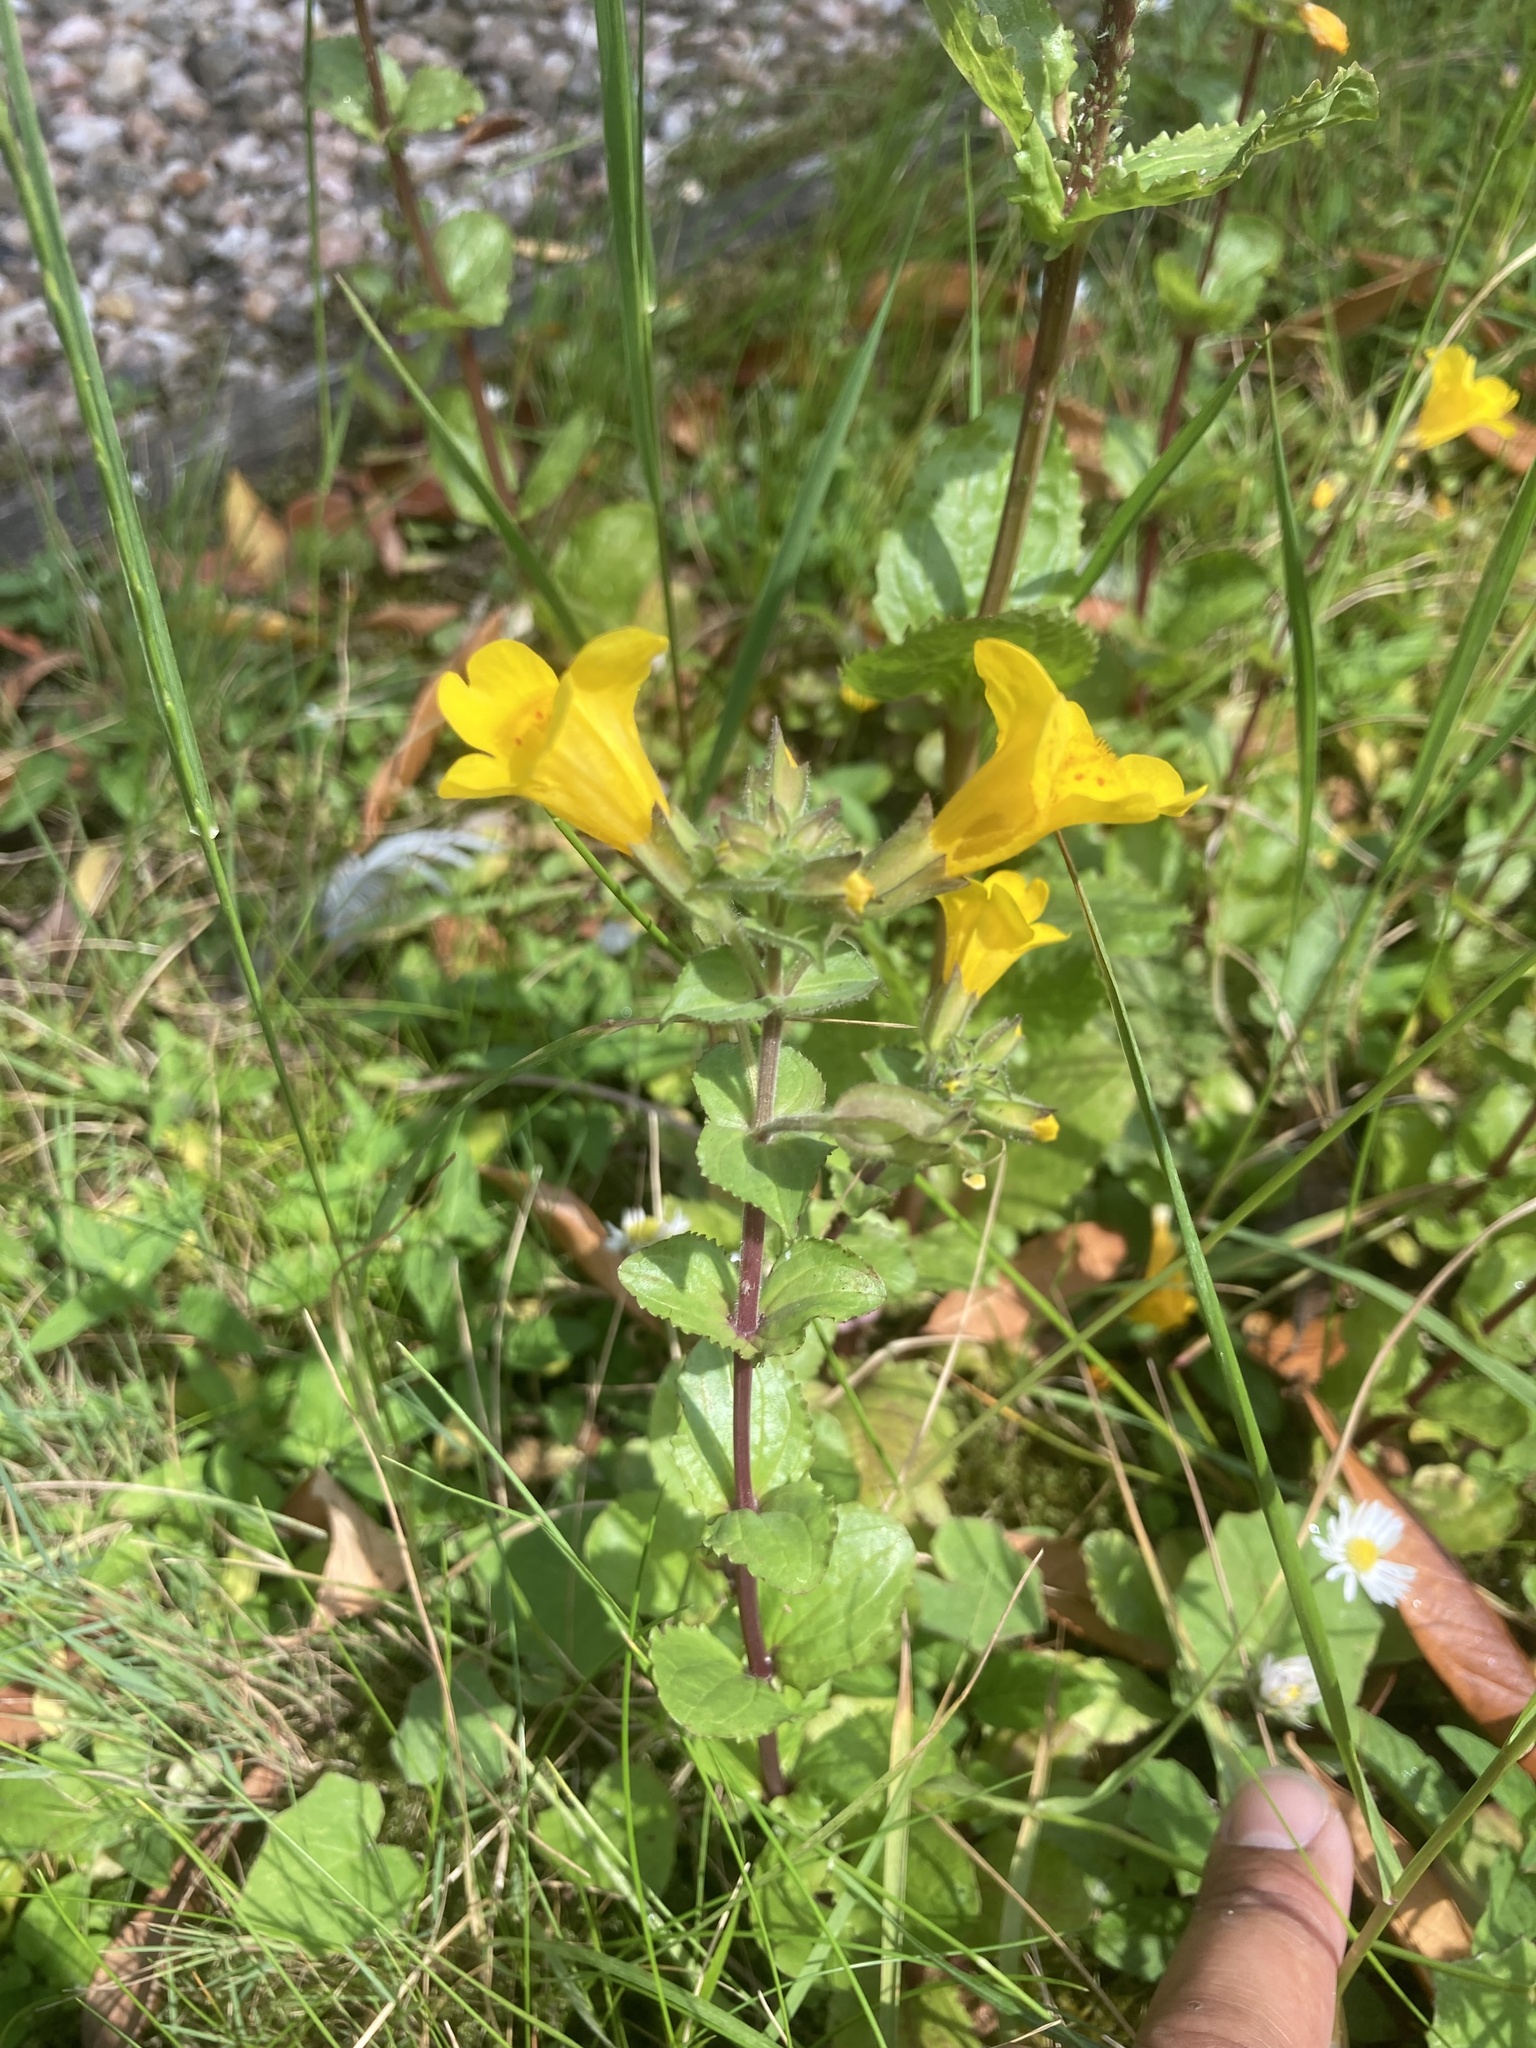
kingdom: Plantae
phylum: Tracheophyta
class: Magnoliopsida
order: Lamiales
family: Phrymaceae
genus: Erythranthe
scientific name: Erythranthe guttata
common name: Monkeyflower
